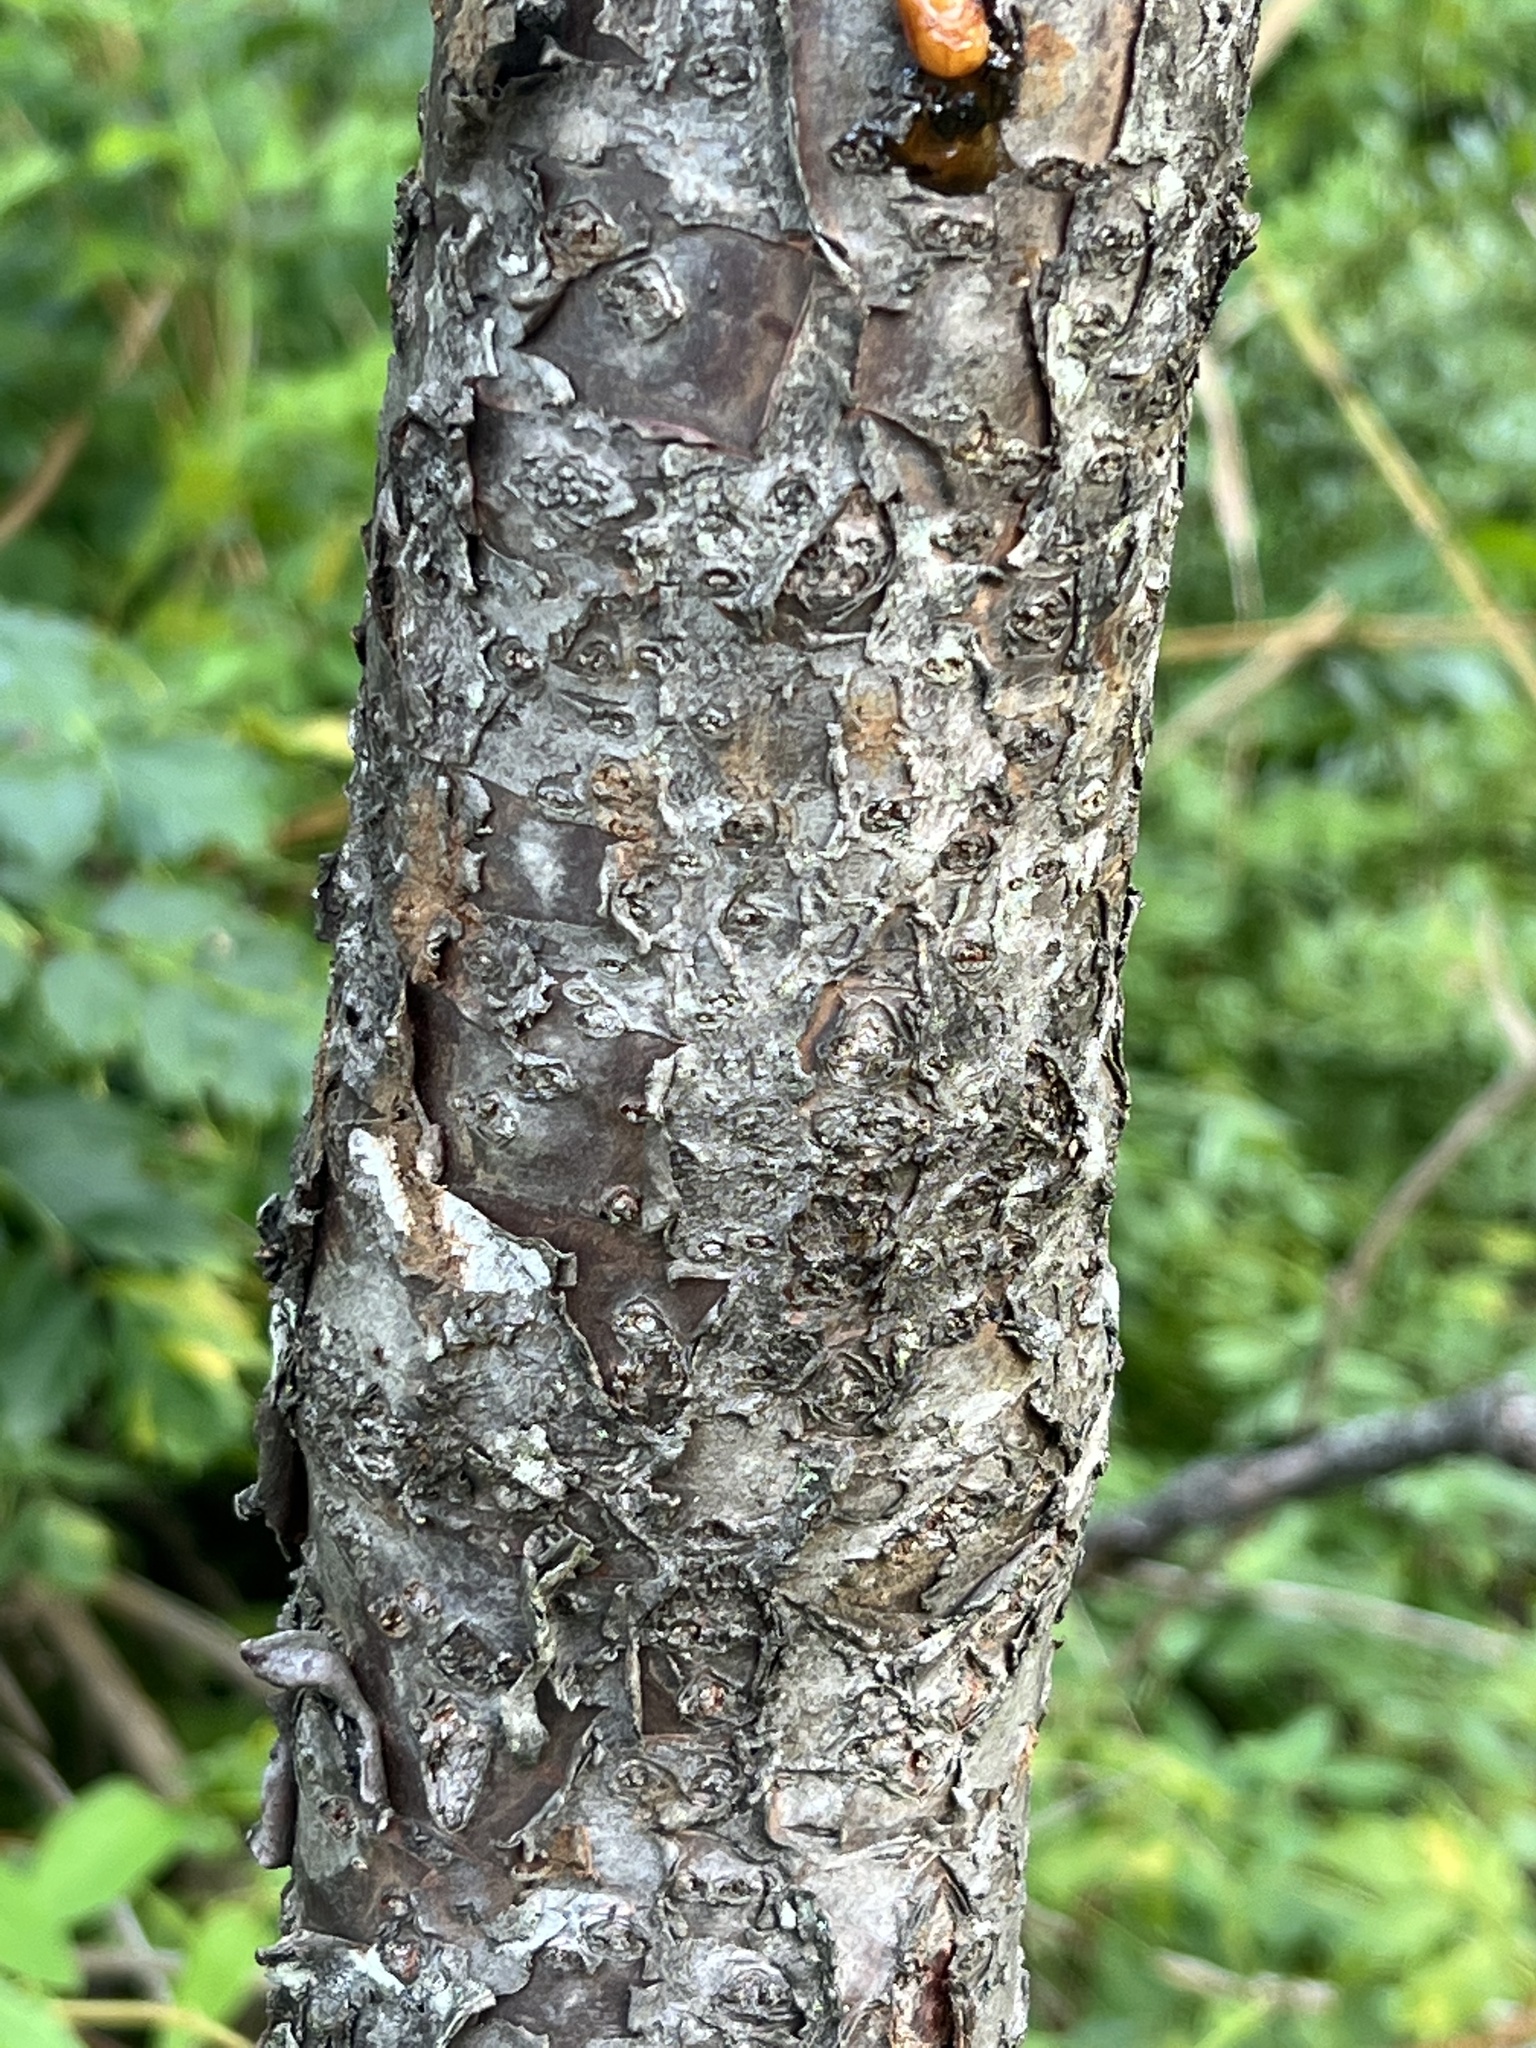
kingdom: Plantae
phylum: Tracheophyta
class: Magnoliopsida
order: Sapindales
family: Anacardiaceae
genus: Rhus
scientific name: Rhus typhina
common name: Staghorn sumac
